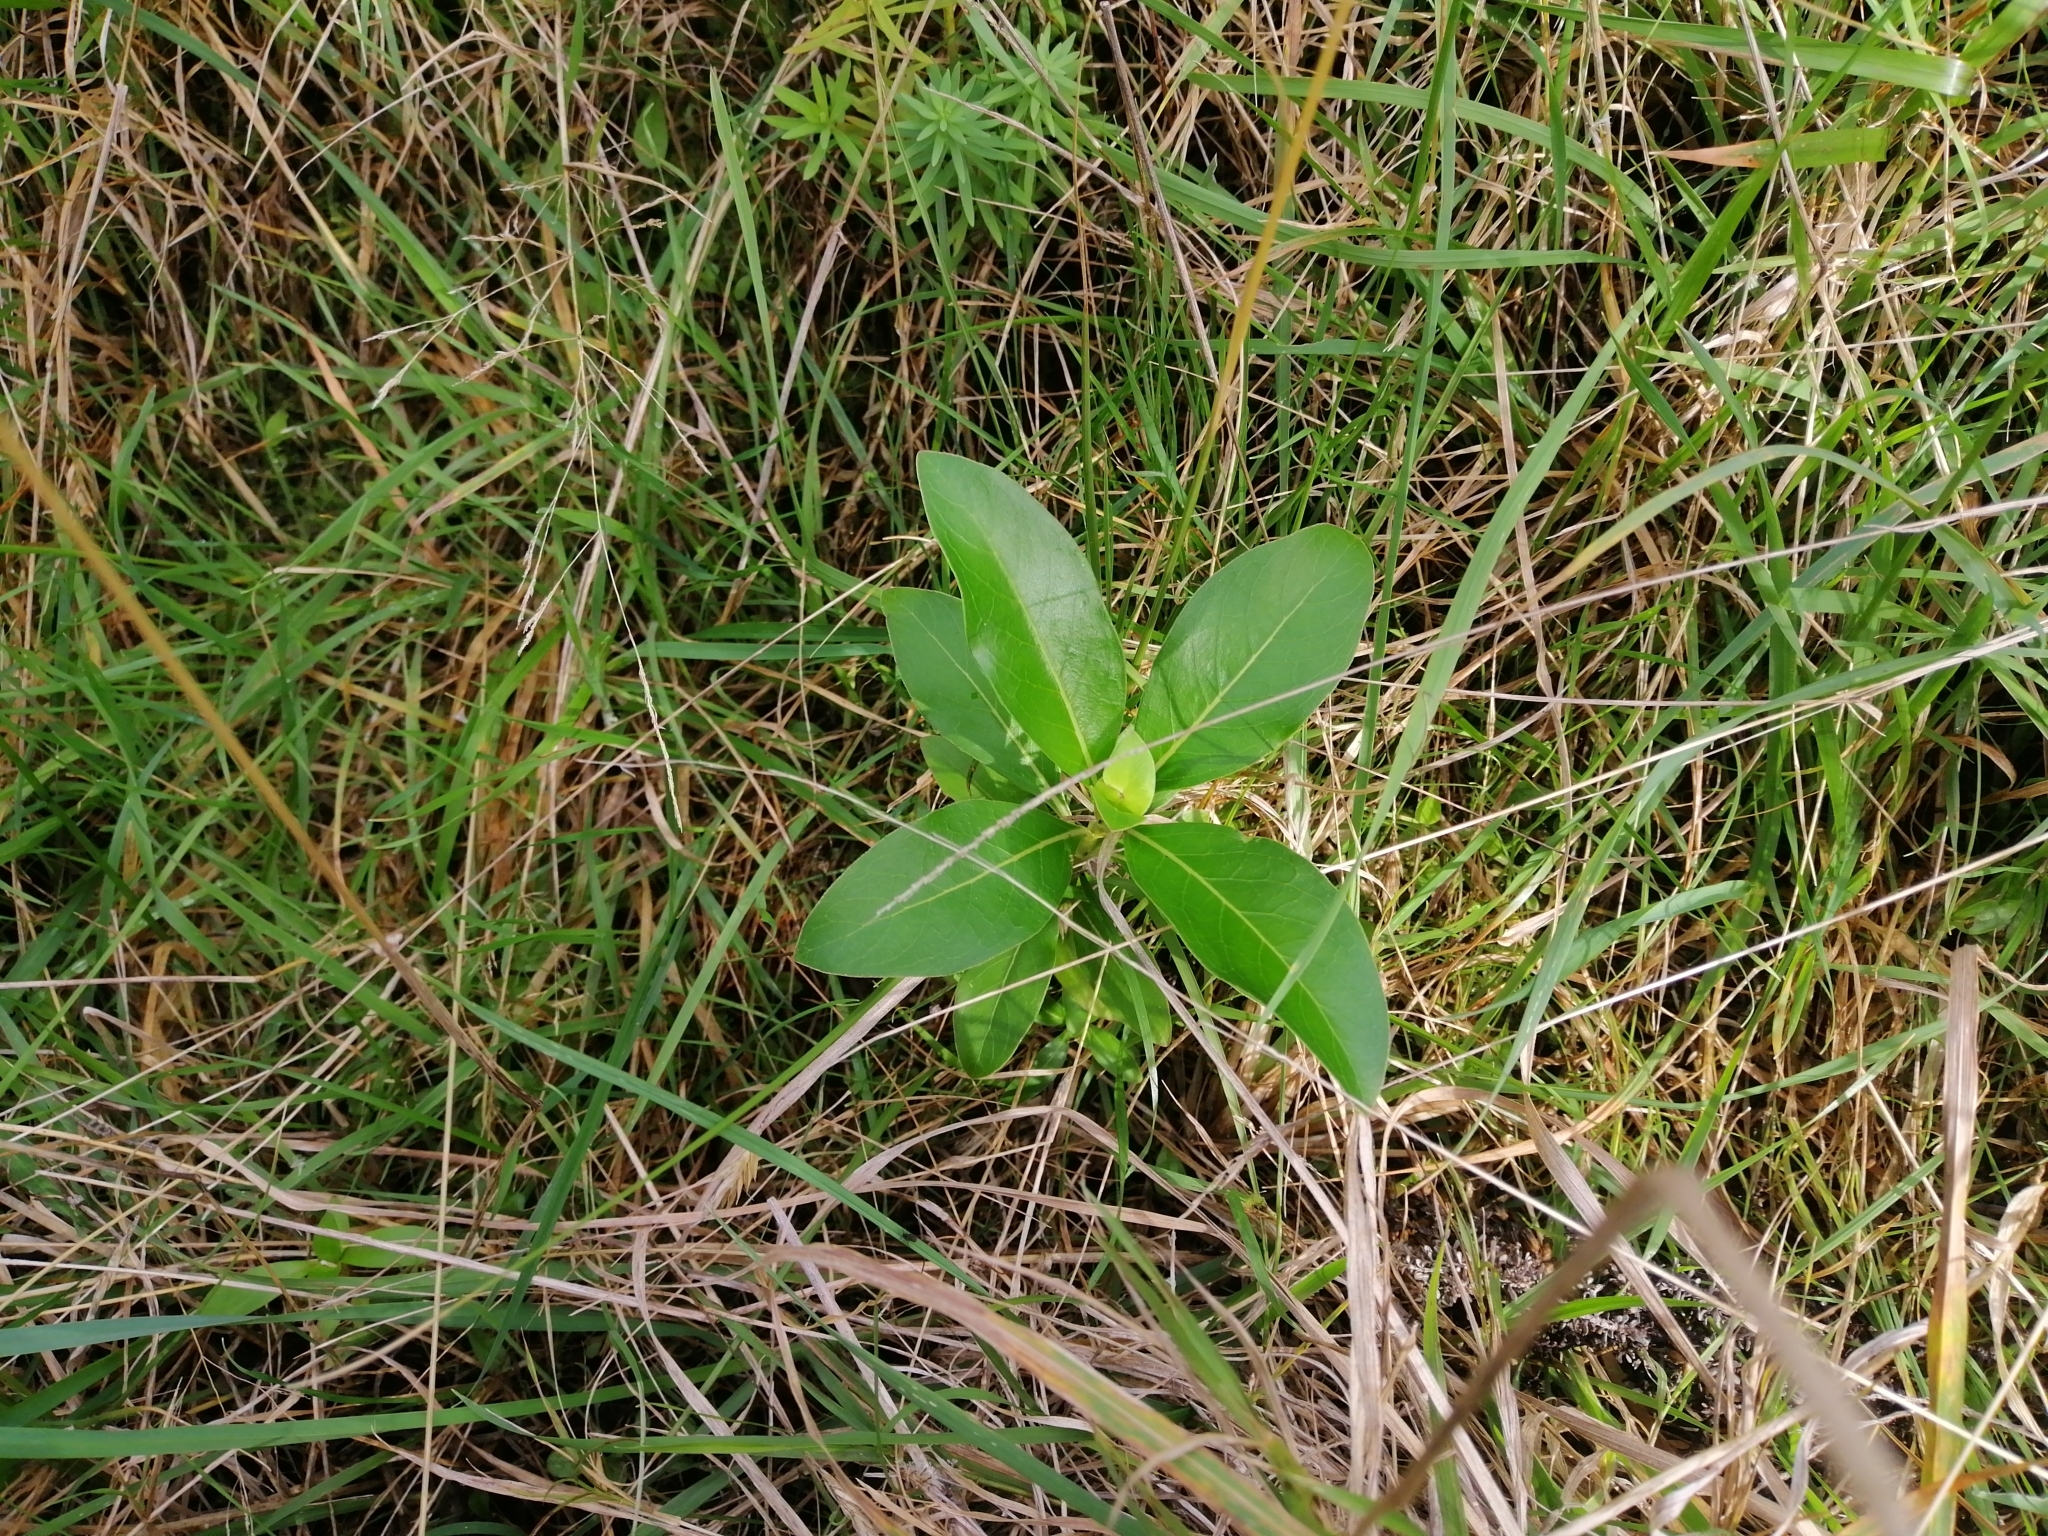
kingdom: Plantae
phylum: Tracheophyta
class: Magnoliopsida
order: Gentianales
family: Rubiaceae
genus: Coprosma
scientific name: Coprosma robusta
